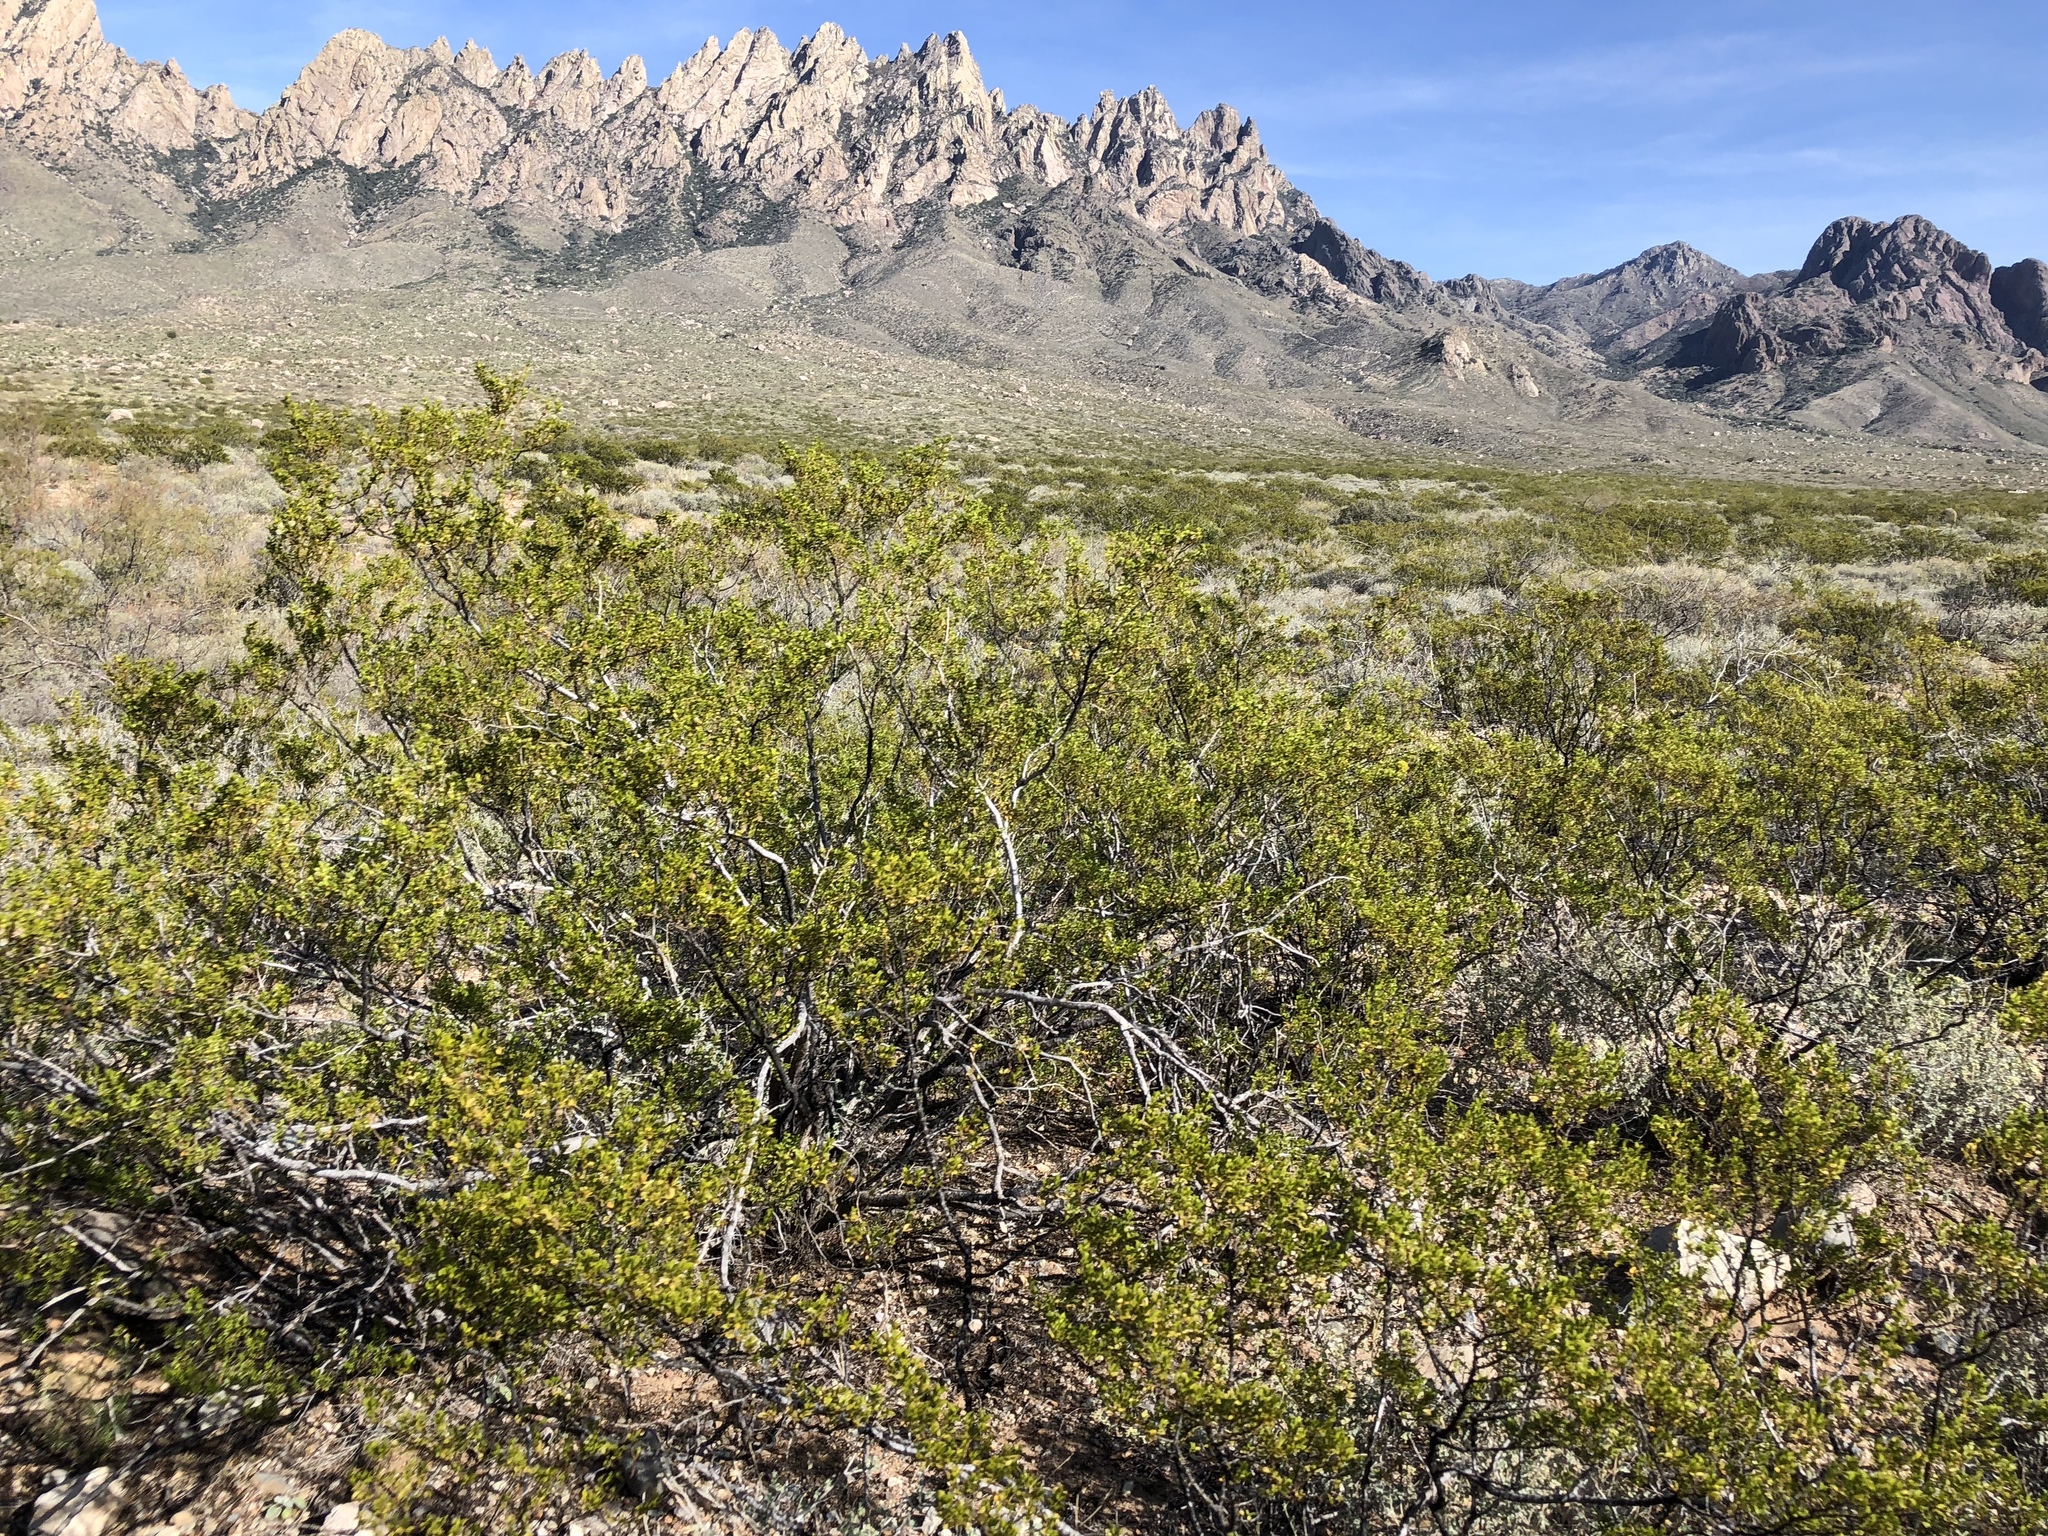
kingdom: Plantae
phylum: Tracheophyta
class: Magnoliopsida
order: Zygophyllales
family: Zygophyllaceae
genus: Larrea
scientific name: Larrea tridentata
